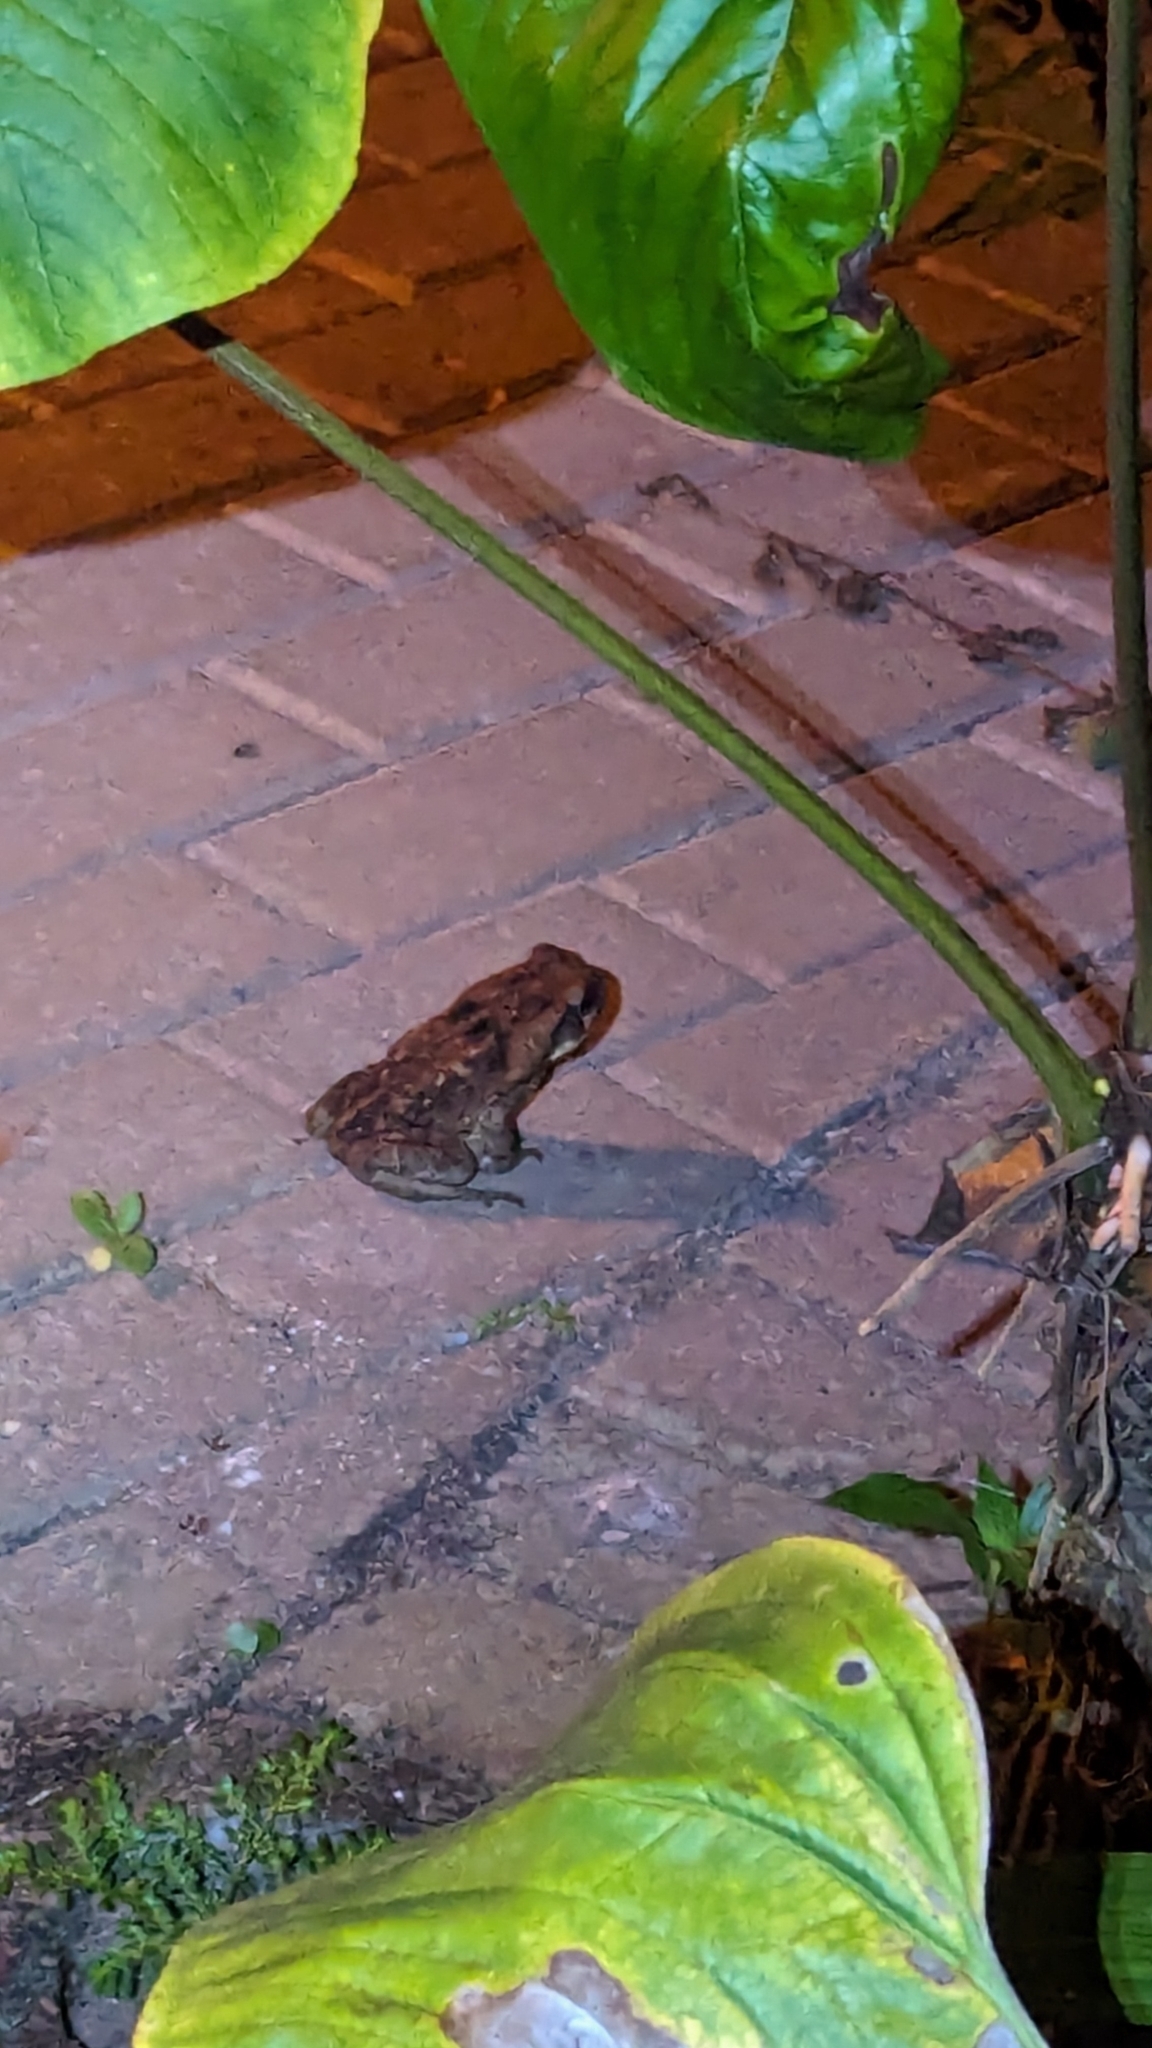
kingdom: Animalia
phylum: Chordata
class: Amphibia
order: Anura
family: Bufonidae
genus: Rhinella
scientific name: Rhinella horribilis
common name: Mesoamerican cane toad
